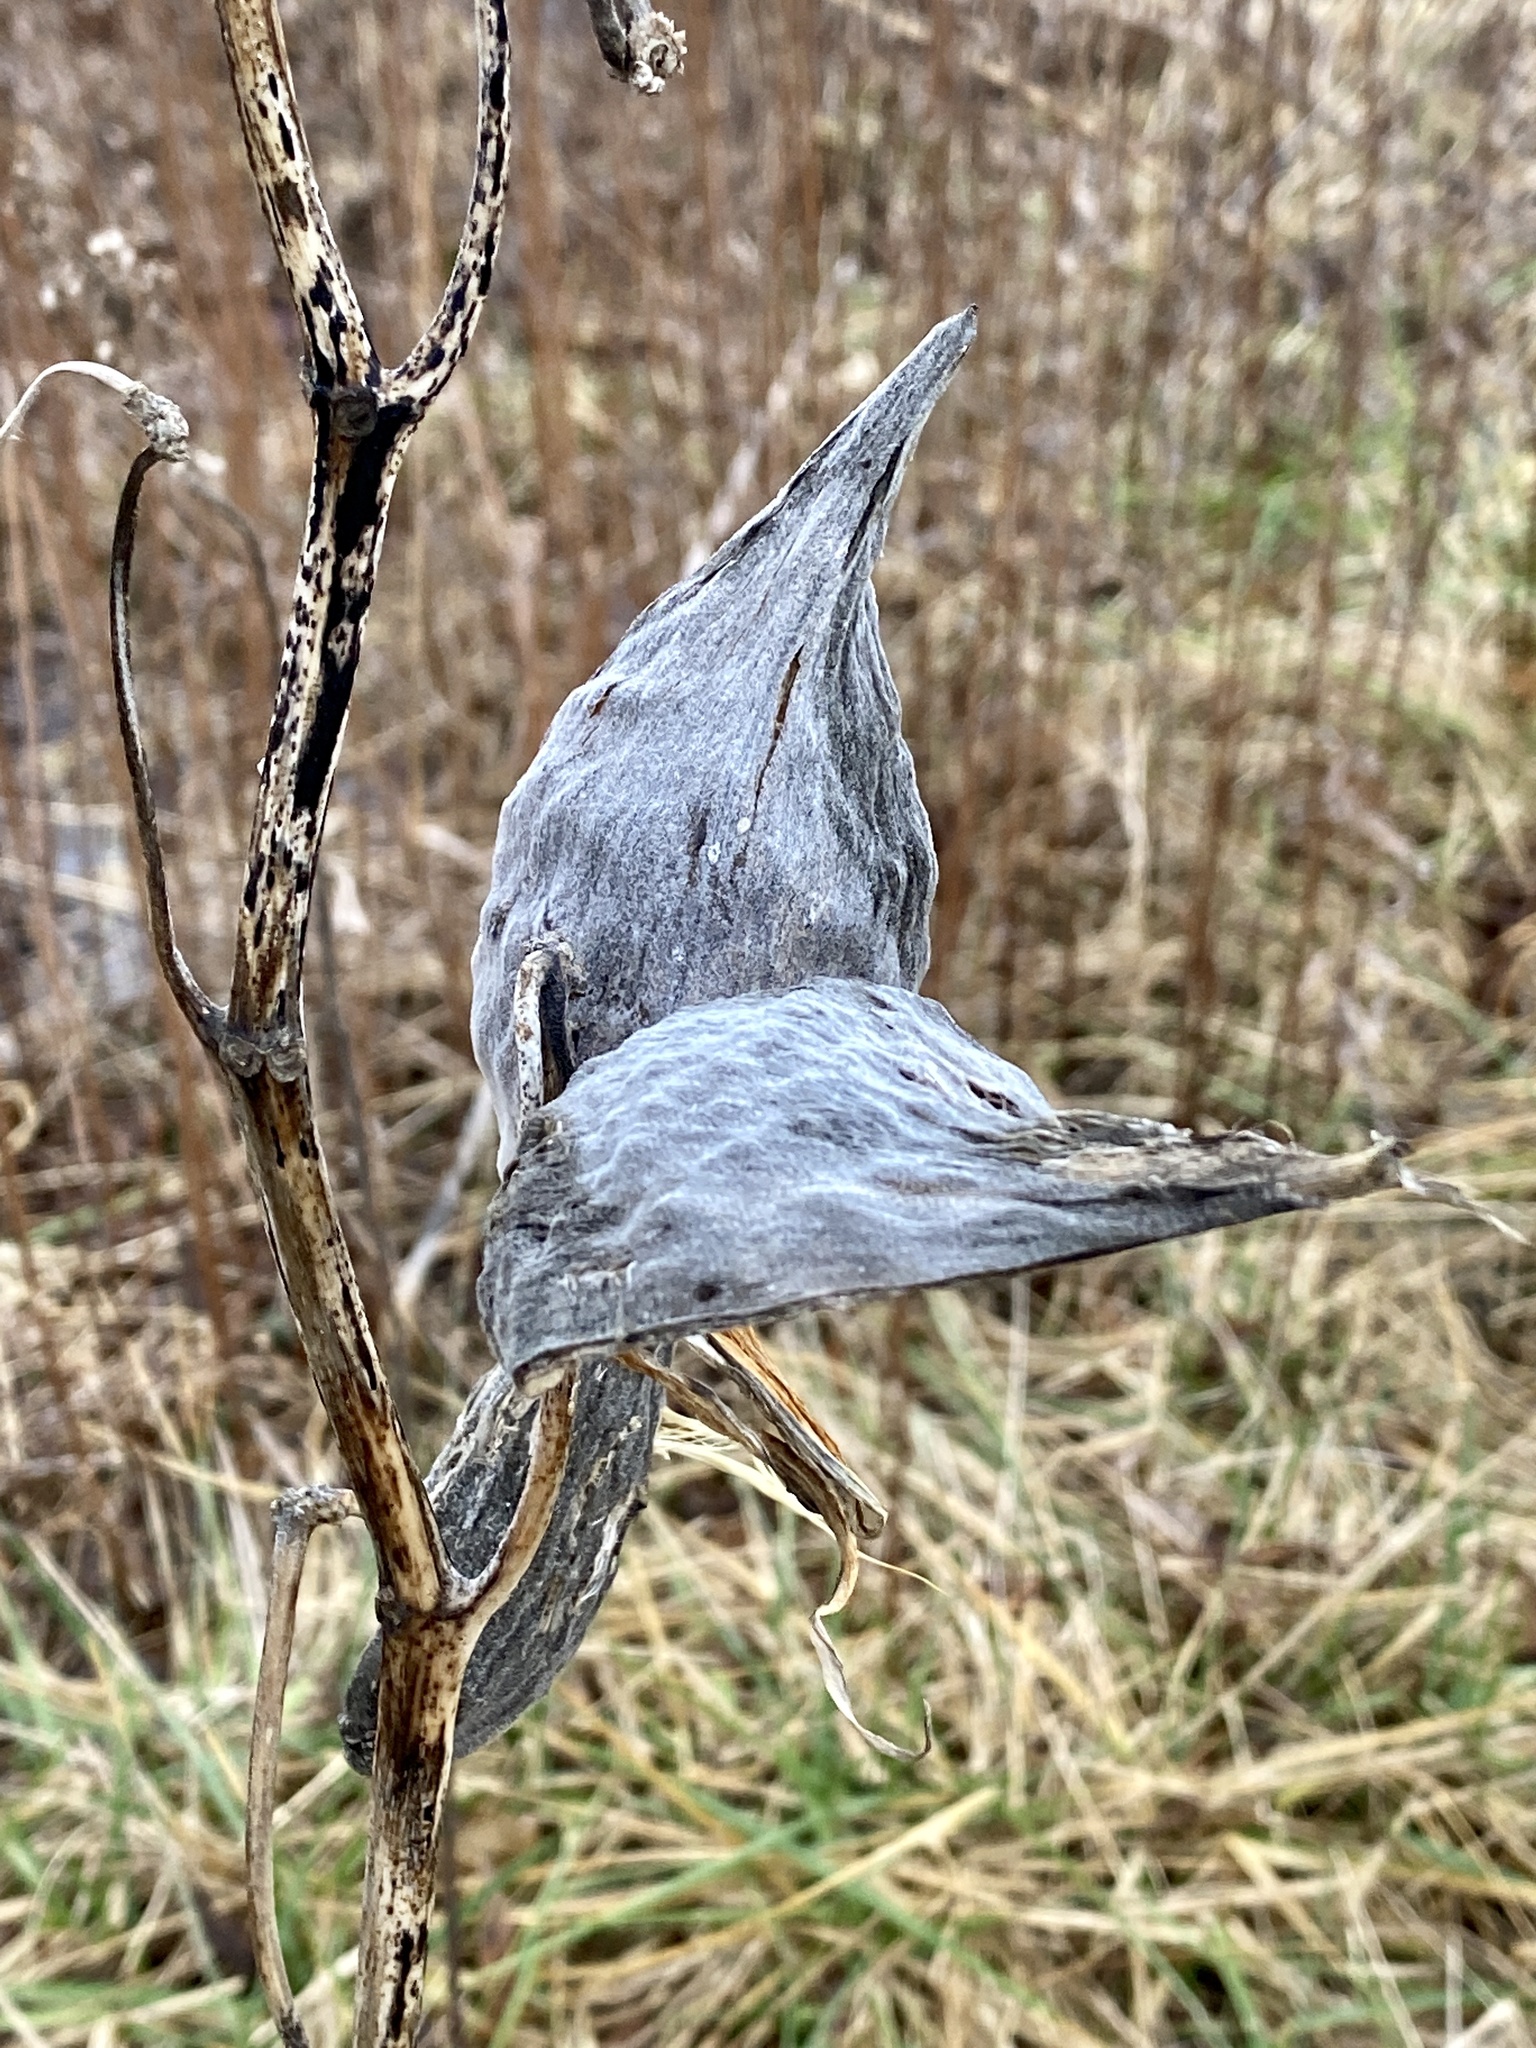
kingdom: Plantae
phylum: Tracheophyta
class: Magnoliopsida
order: Gentianales
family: Apocynaceae
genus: Asclepias
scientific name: Asclepias syriaca
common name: Common milkweed
